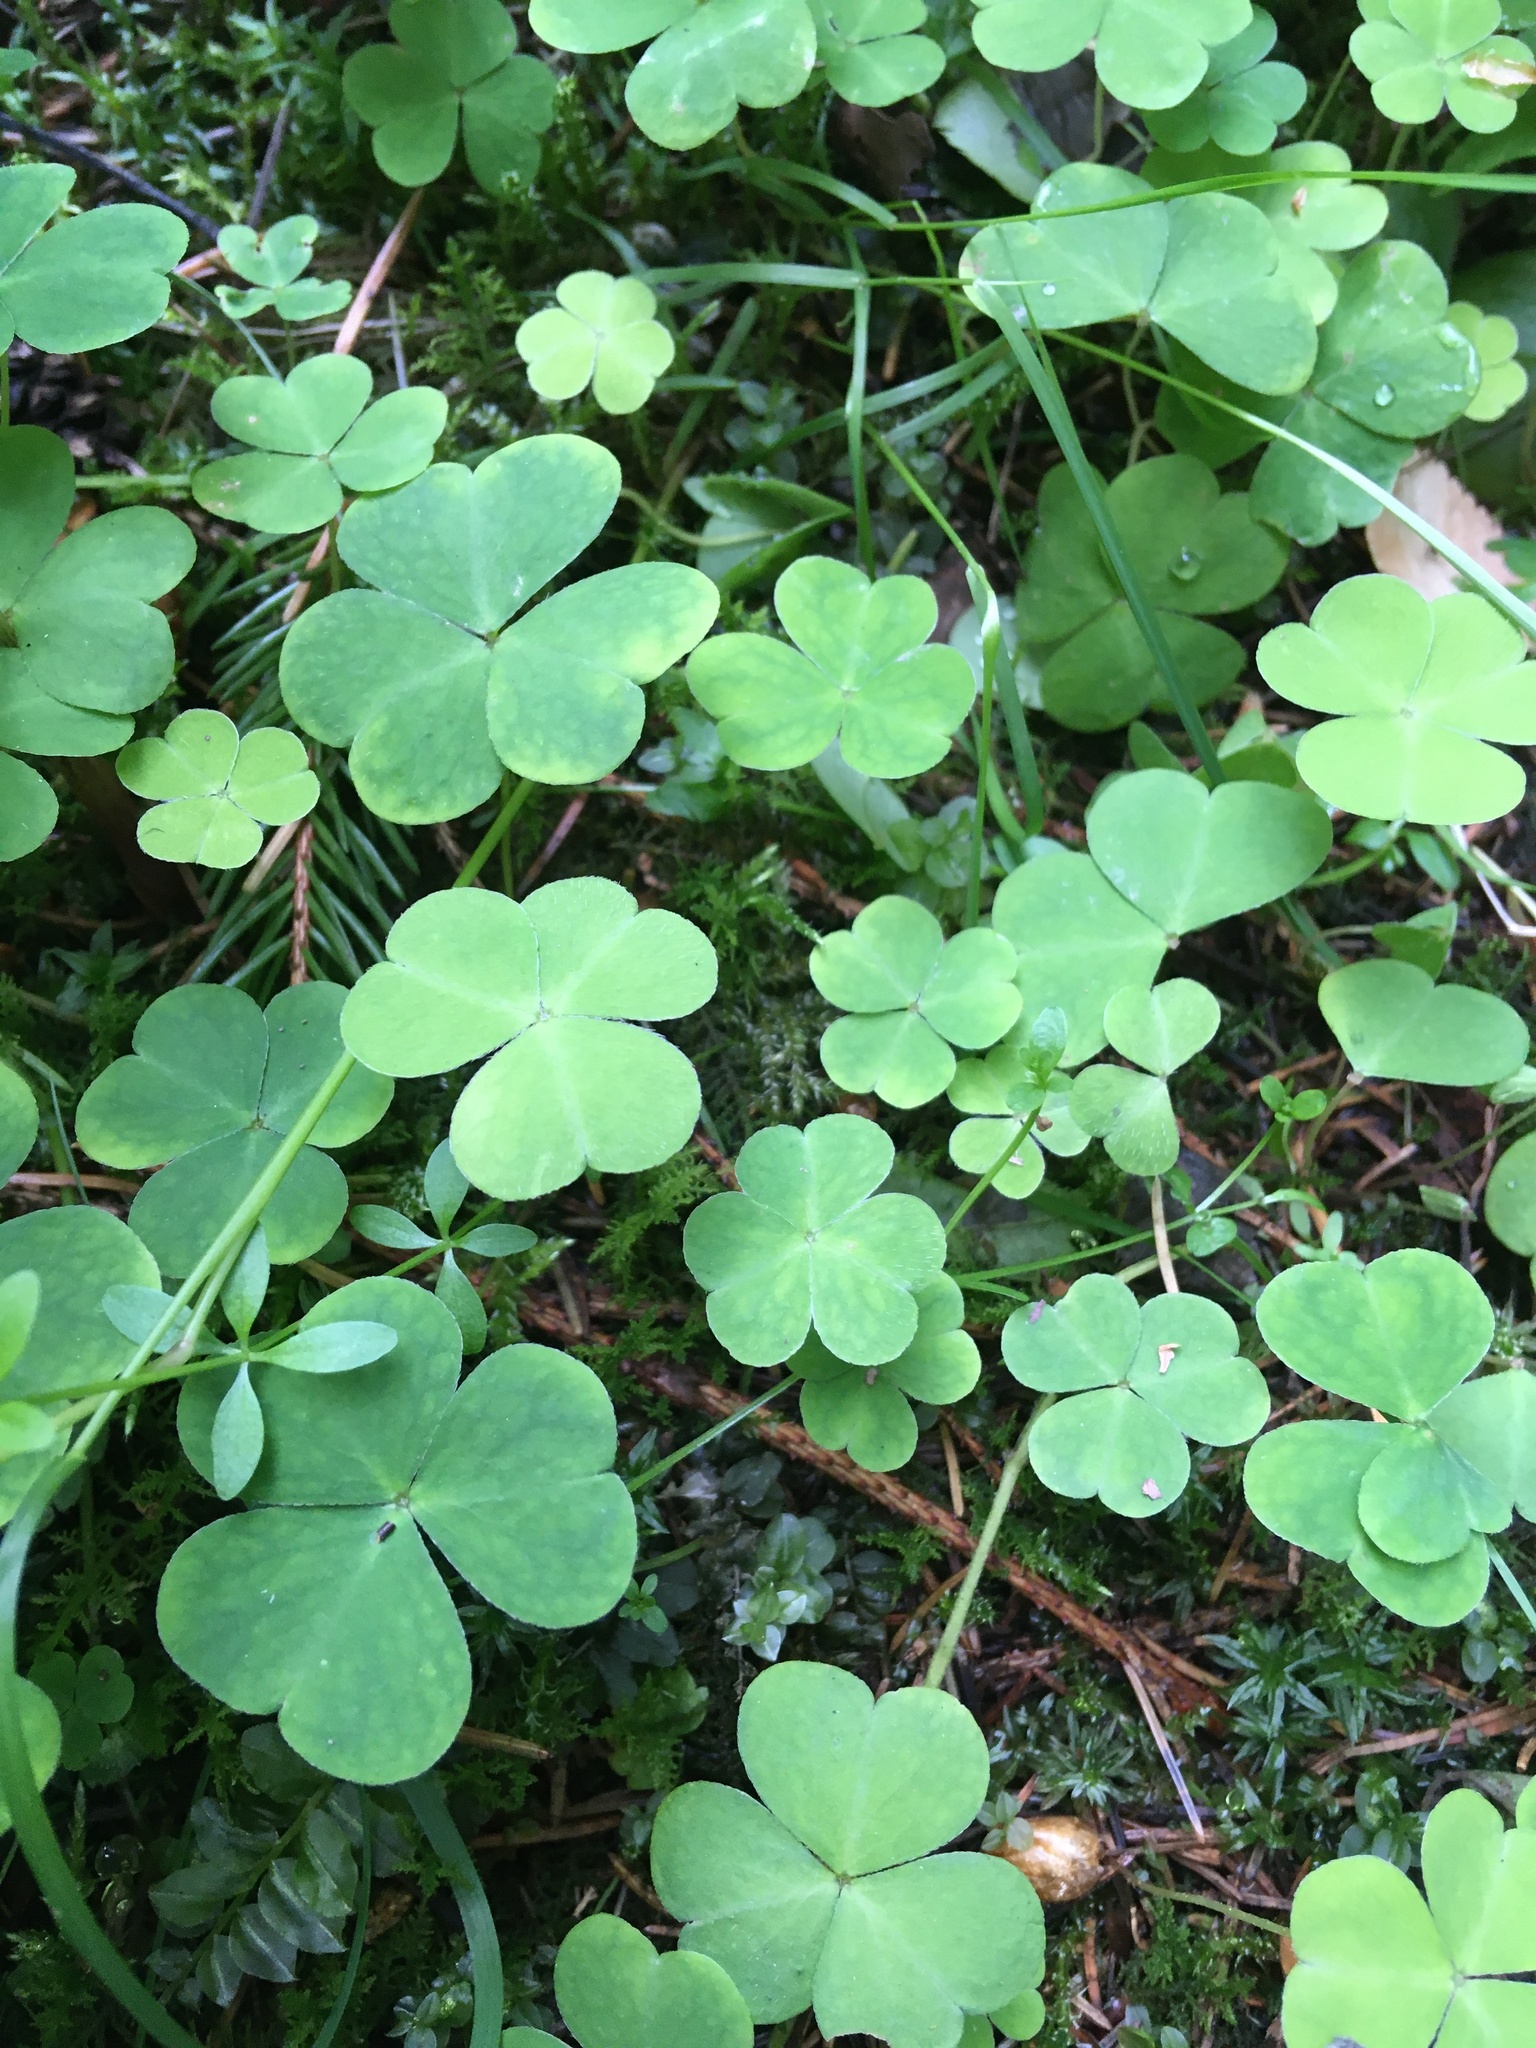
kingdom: Plantae
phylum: Tracheophyta
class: Magnoliopsida
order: Oxalidales
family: Oxalidaceae
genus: Oxalis
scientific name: Oxalis acetosella
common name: Wood-sorrel
